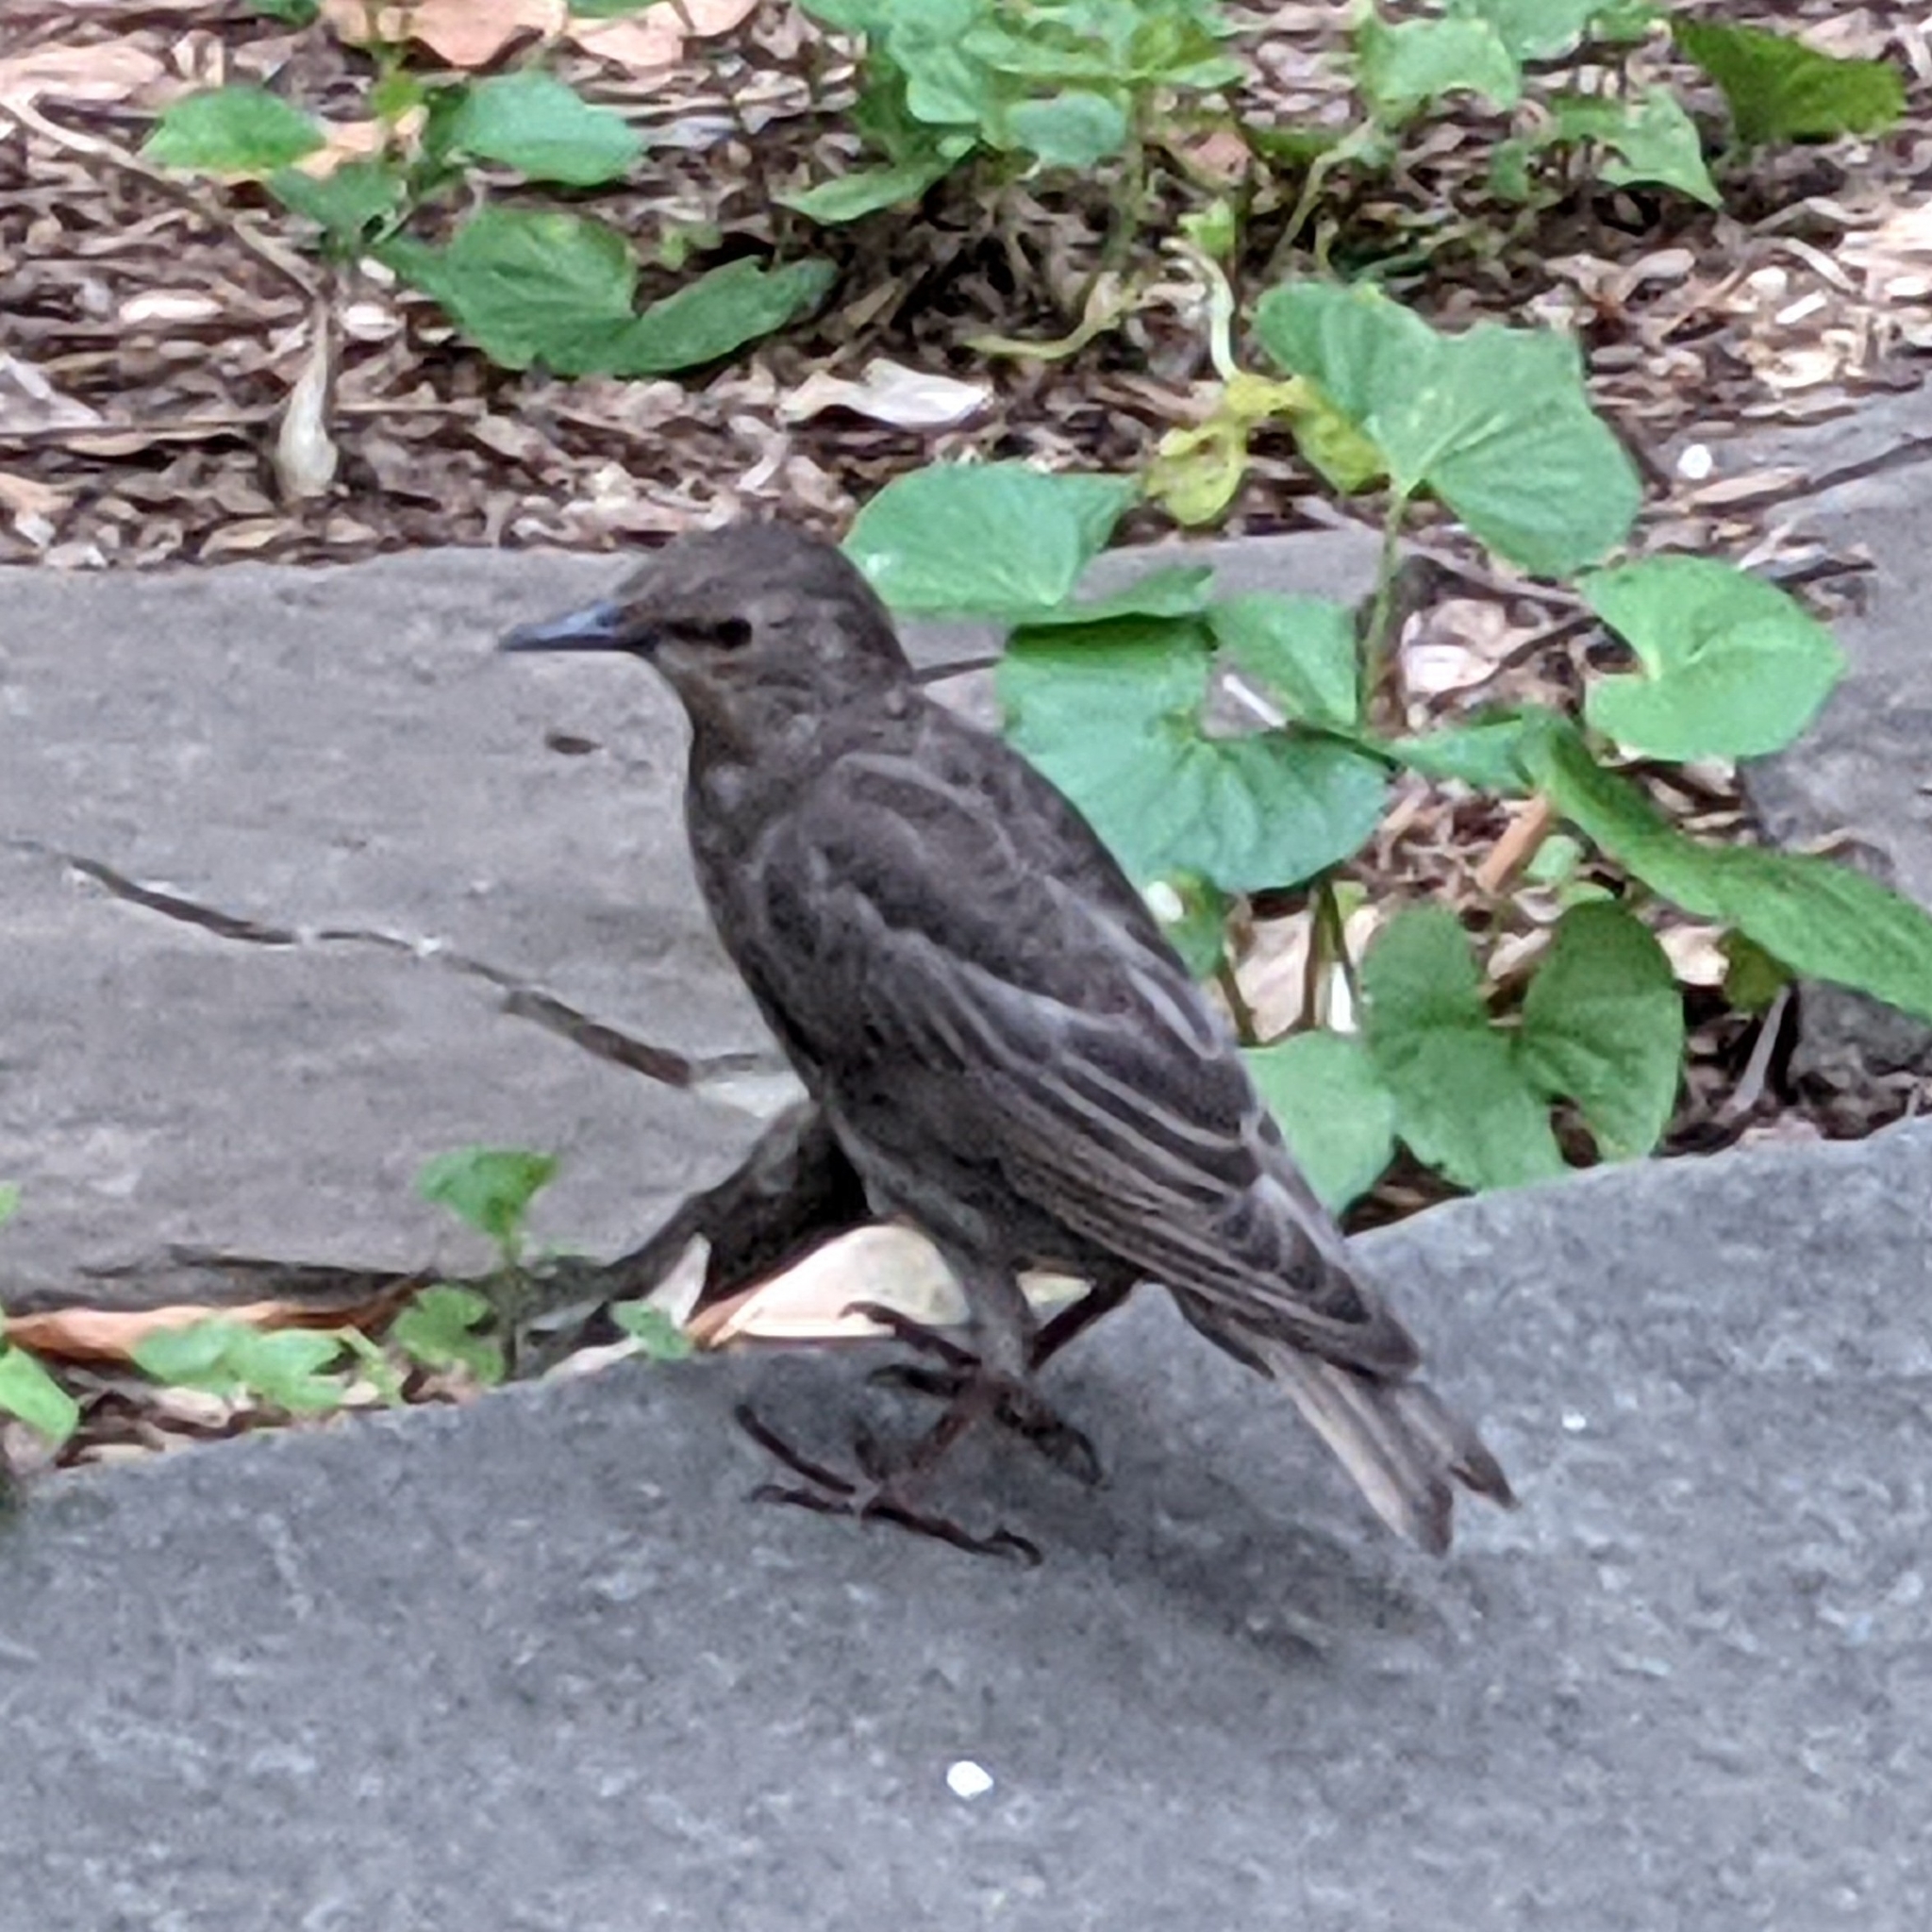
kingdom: Animalia
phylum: Chordata
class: Aves
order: Passeriformes
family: Sturnidae
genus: Sturnus
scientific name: Sturnus vulgaris
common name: Common starling
